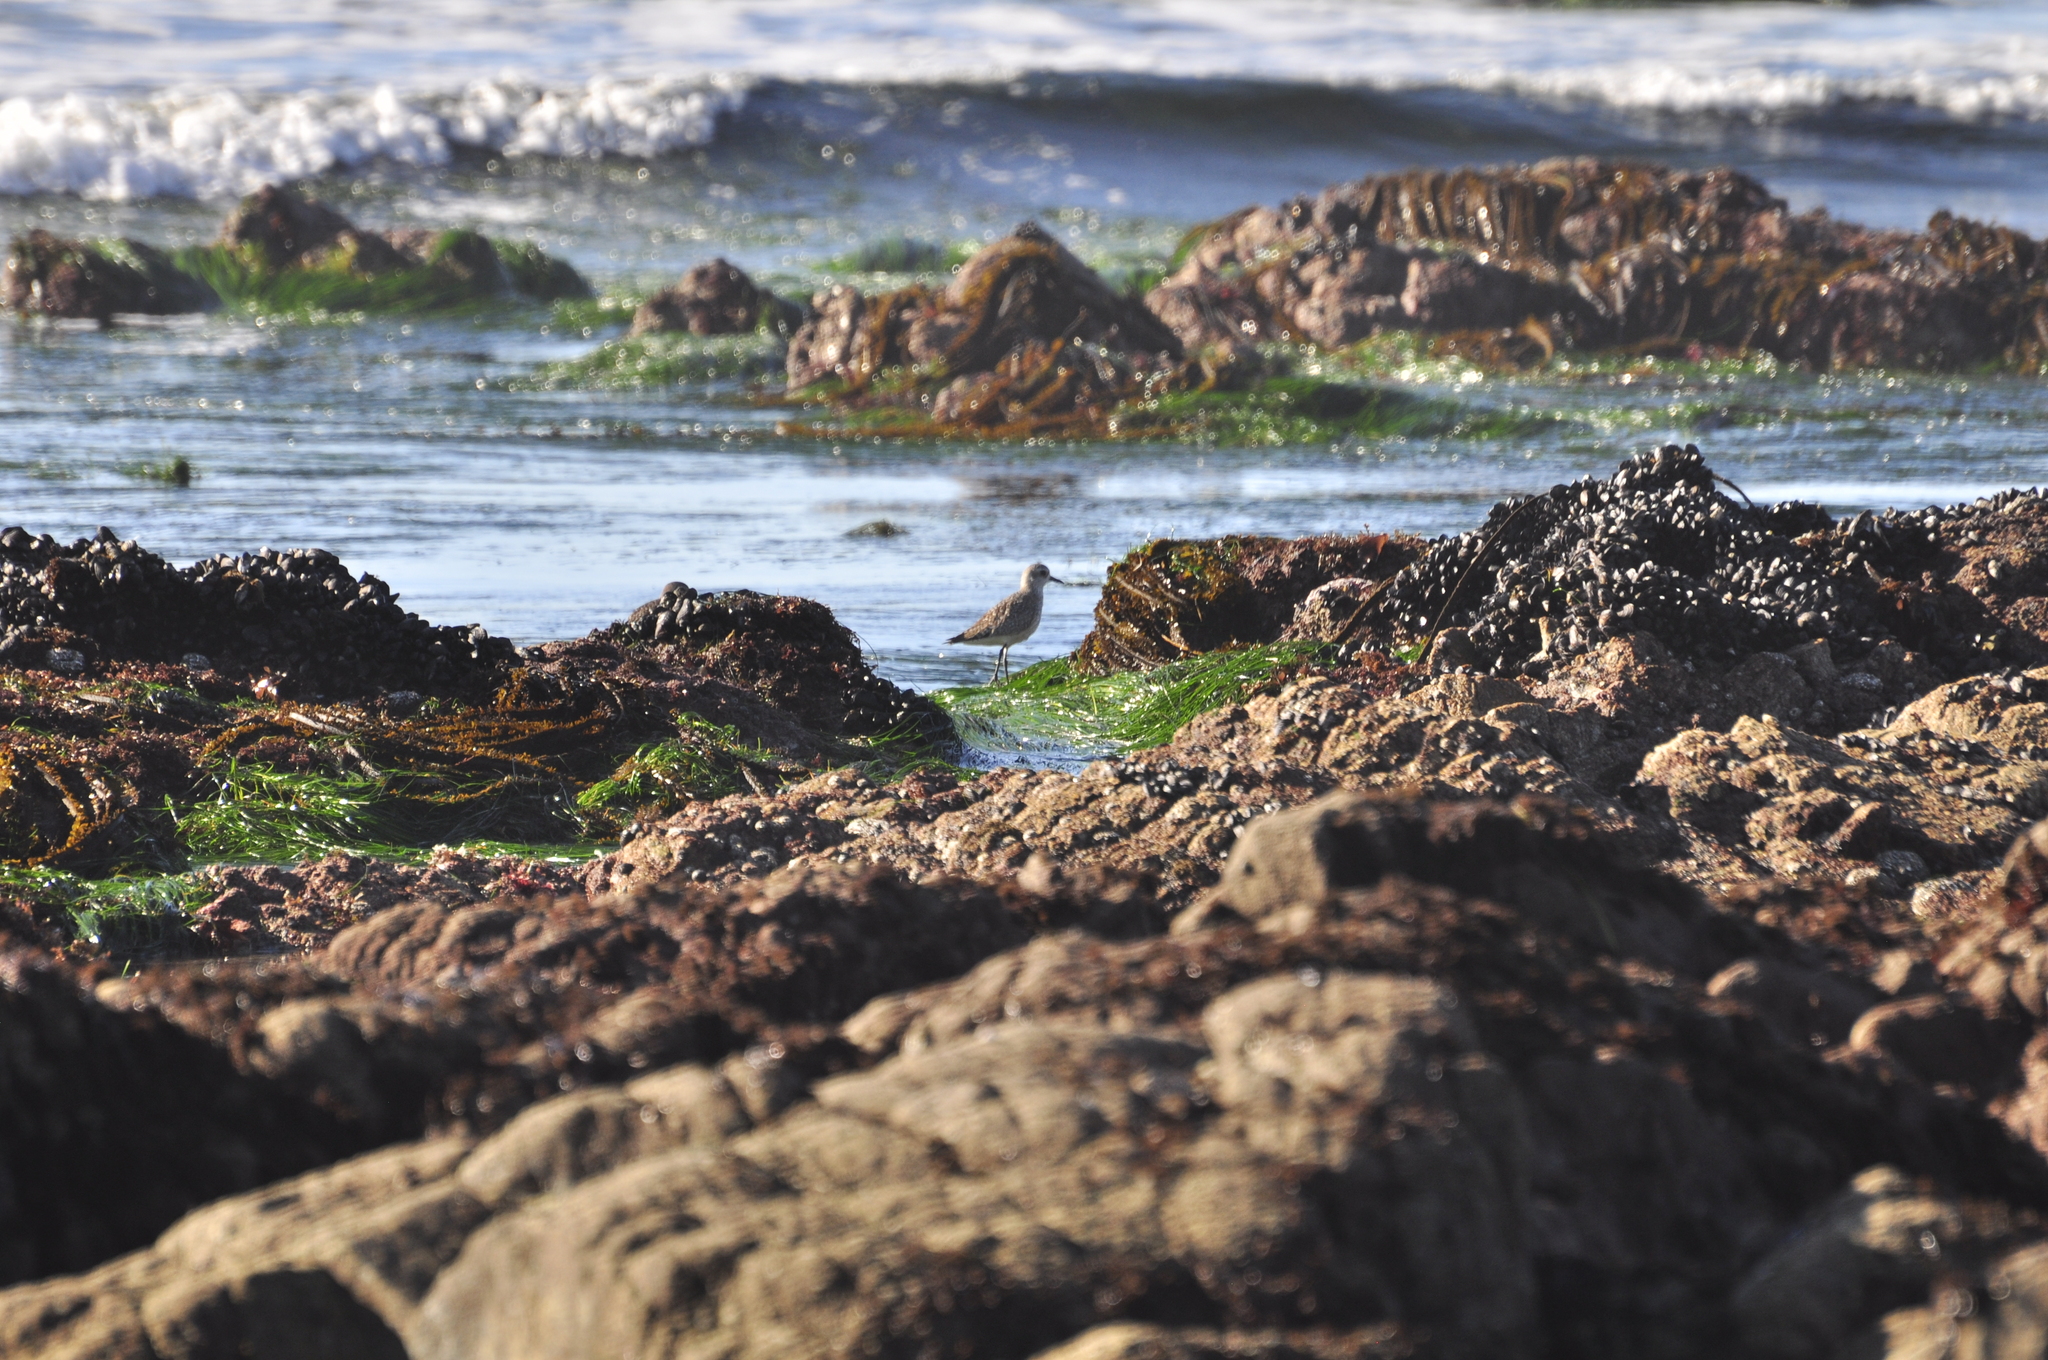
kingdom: Animalia
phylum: Chordata
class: Aves
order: Charadriiformes
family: Charadriidae
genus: Pluvialis
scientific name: Pluvialis squatarola
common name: Grey plover
